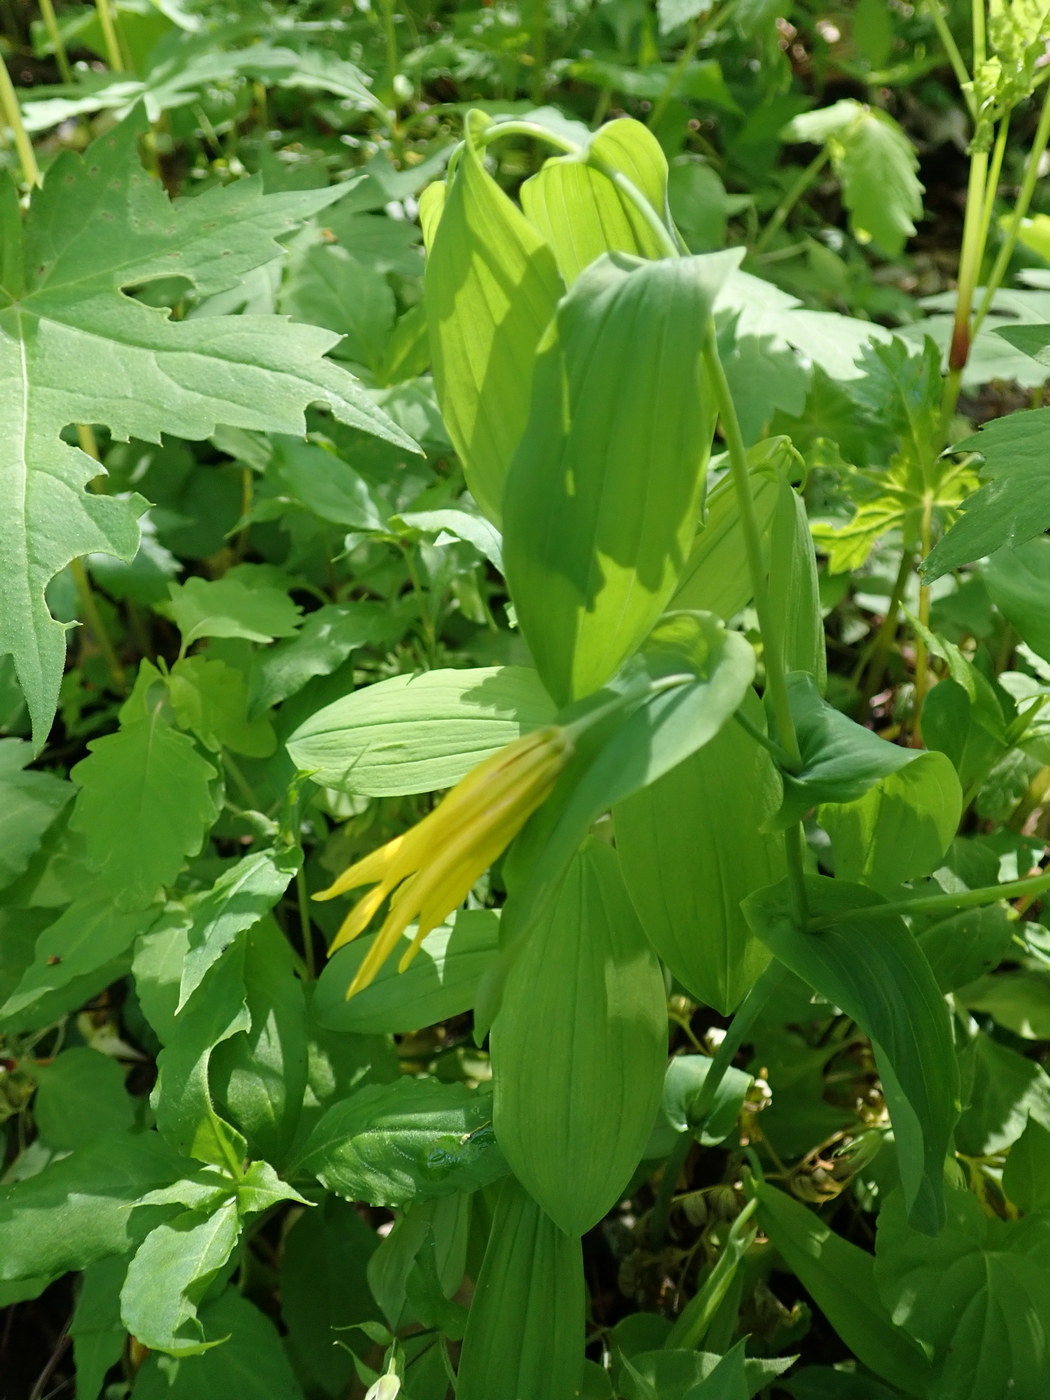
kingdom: Plantae
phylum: Tracheophyta
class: Liliopsida
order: Liliales
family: Colchicaceae
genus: Uvularia
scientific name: Uvularia grandiflora
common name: Bellwort
